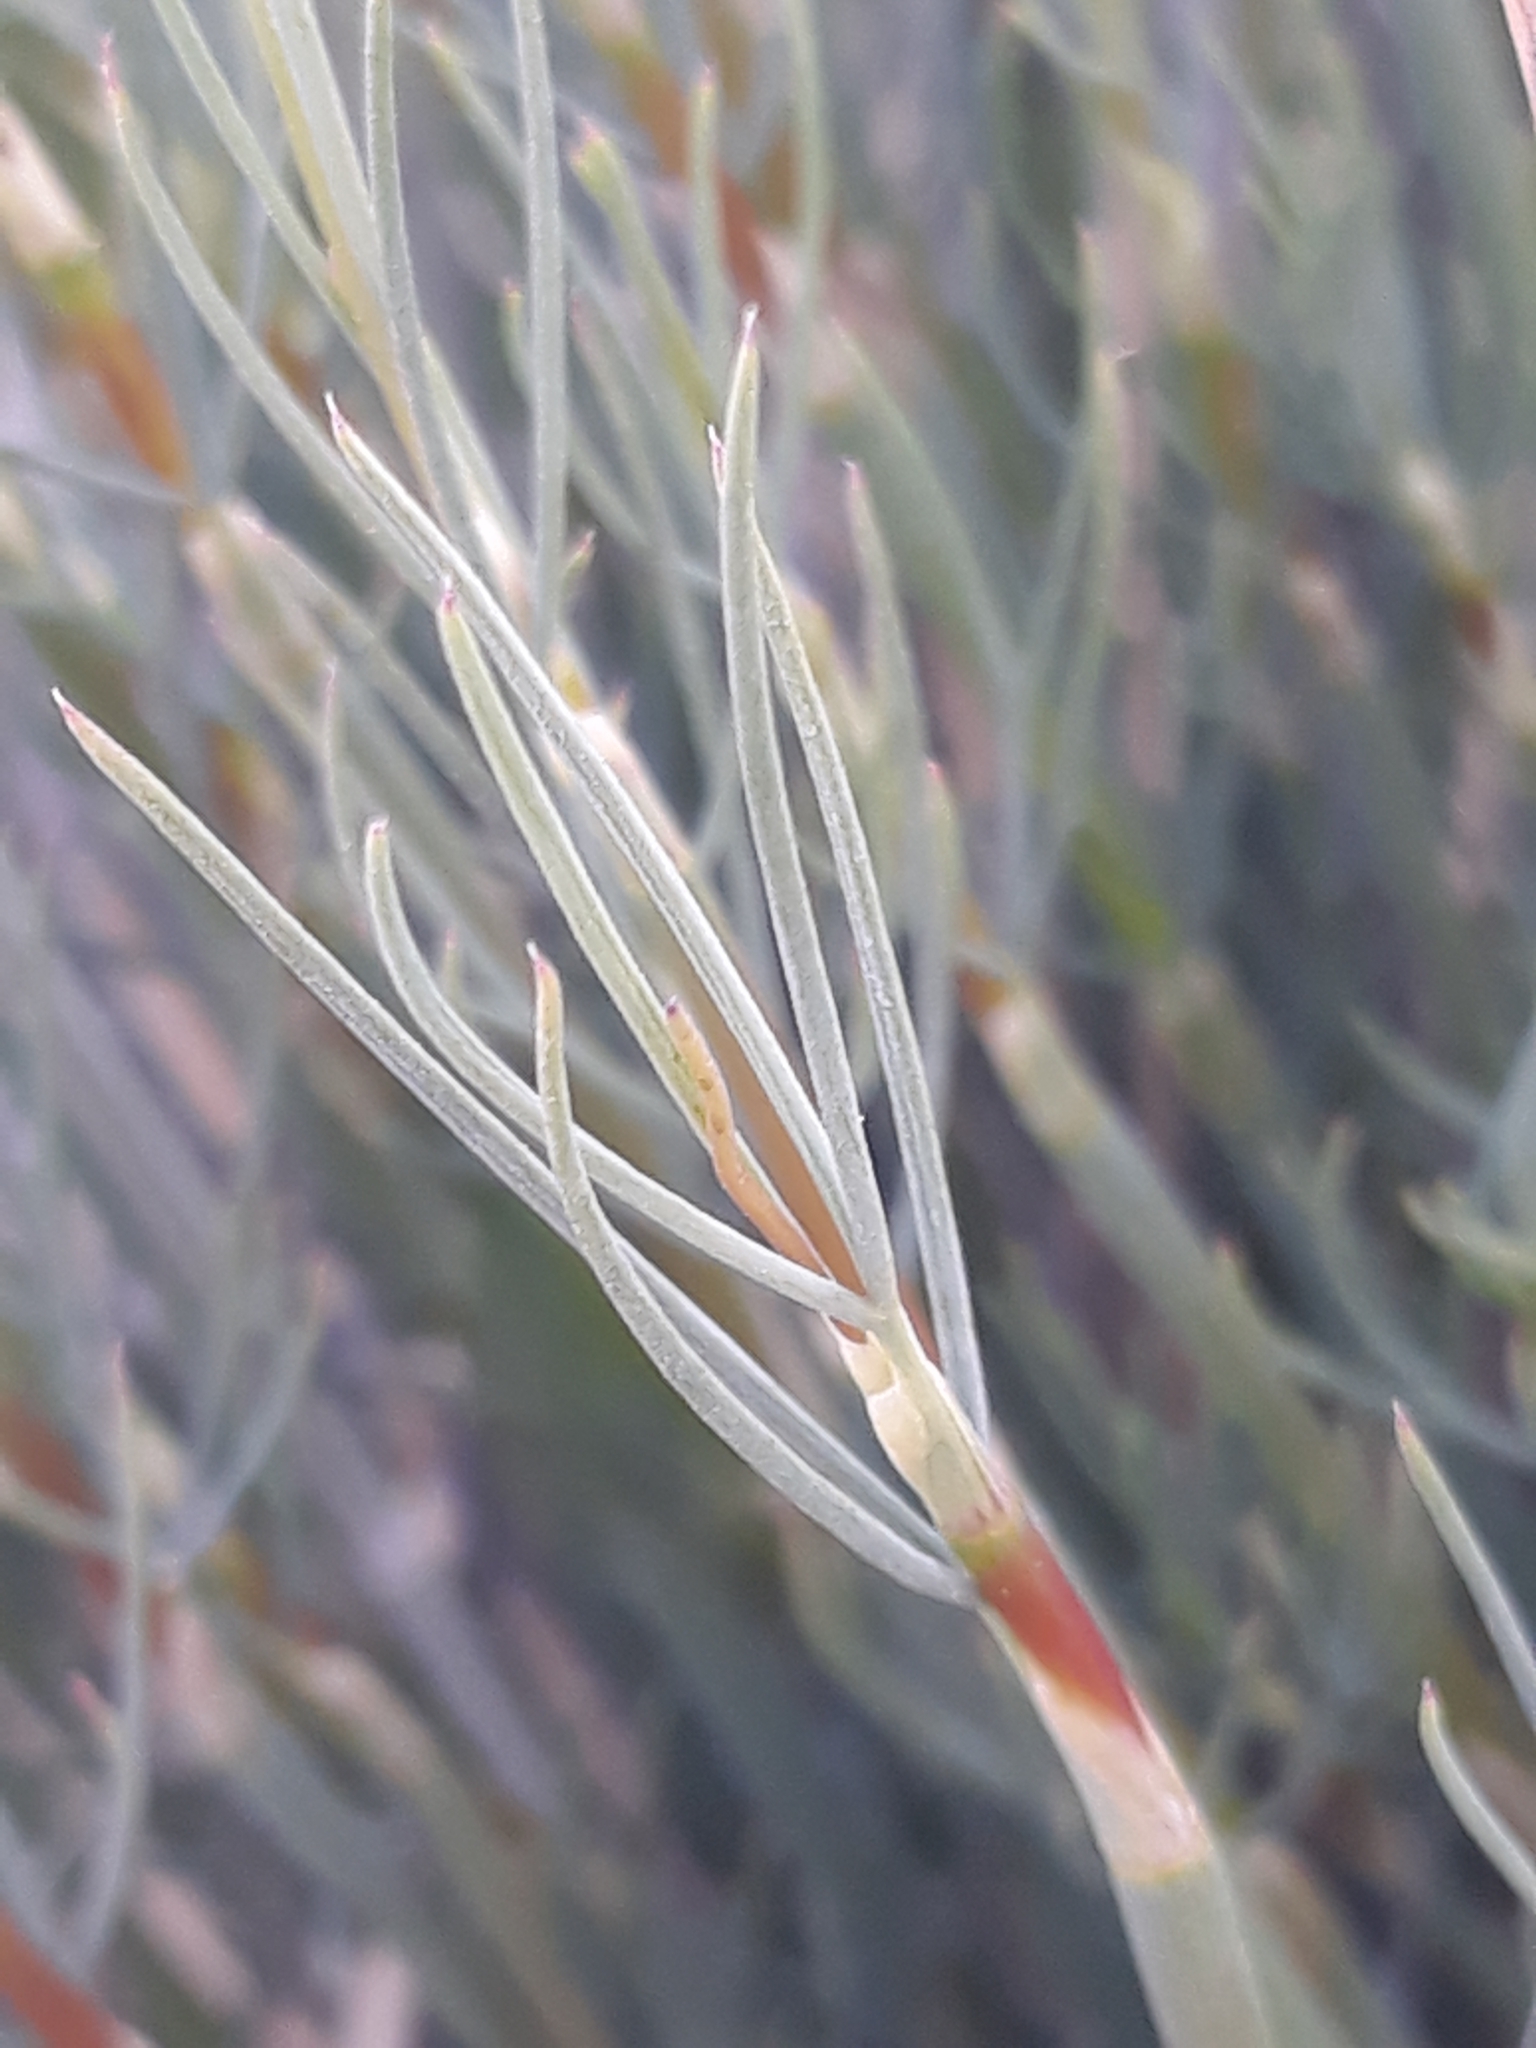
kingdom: Plantae
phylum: Tracheophyta
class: Magnoliopsida
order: Apiales
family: Apiaceae
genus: Deverra
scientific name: Deverra scoparia
